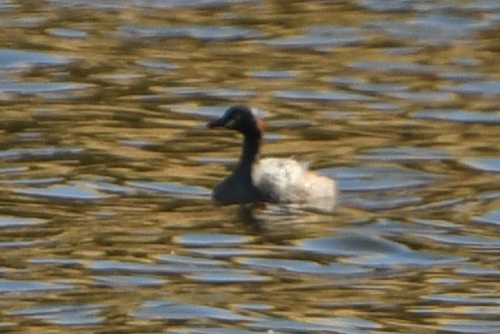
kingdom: Animalia
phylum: Chordata
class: Aves
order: Podicipediformes
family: Podicipedidae
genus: Tachybaptus
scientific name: Tachybaptus novaehollandiae
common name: Australasian grebe
